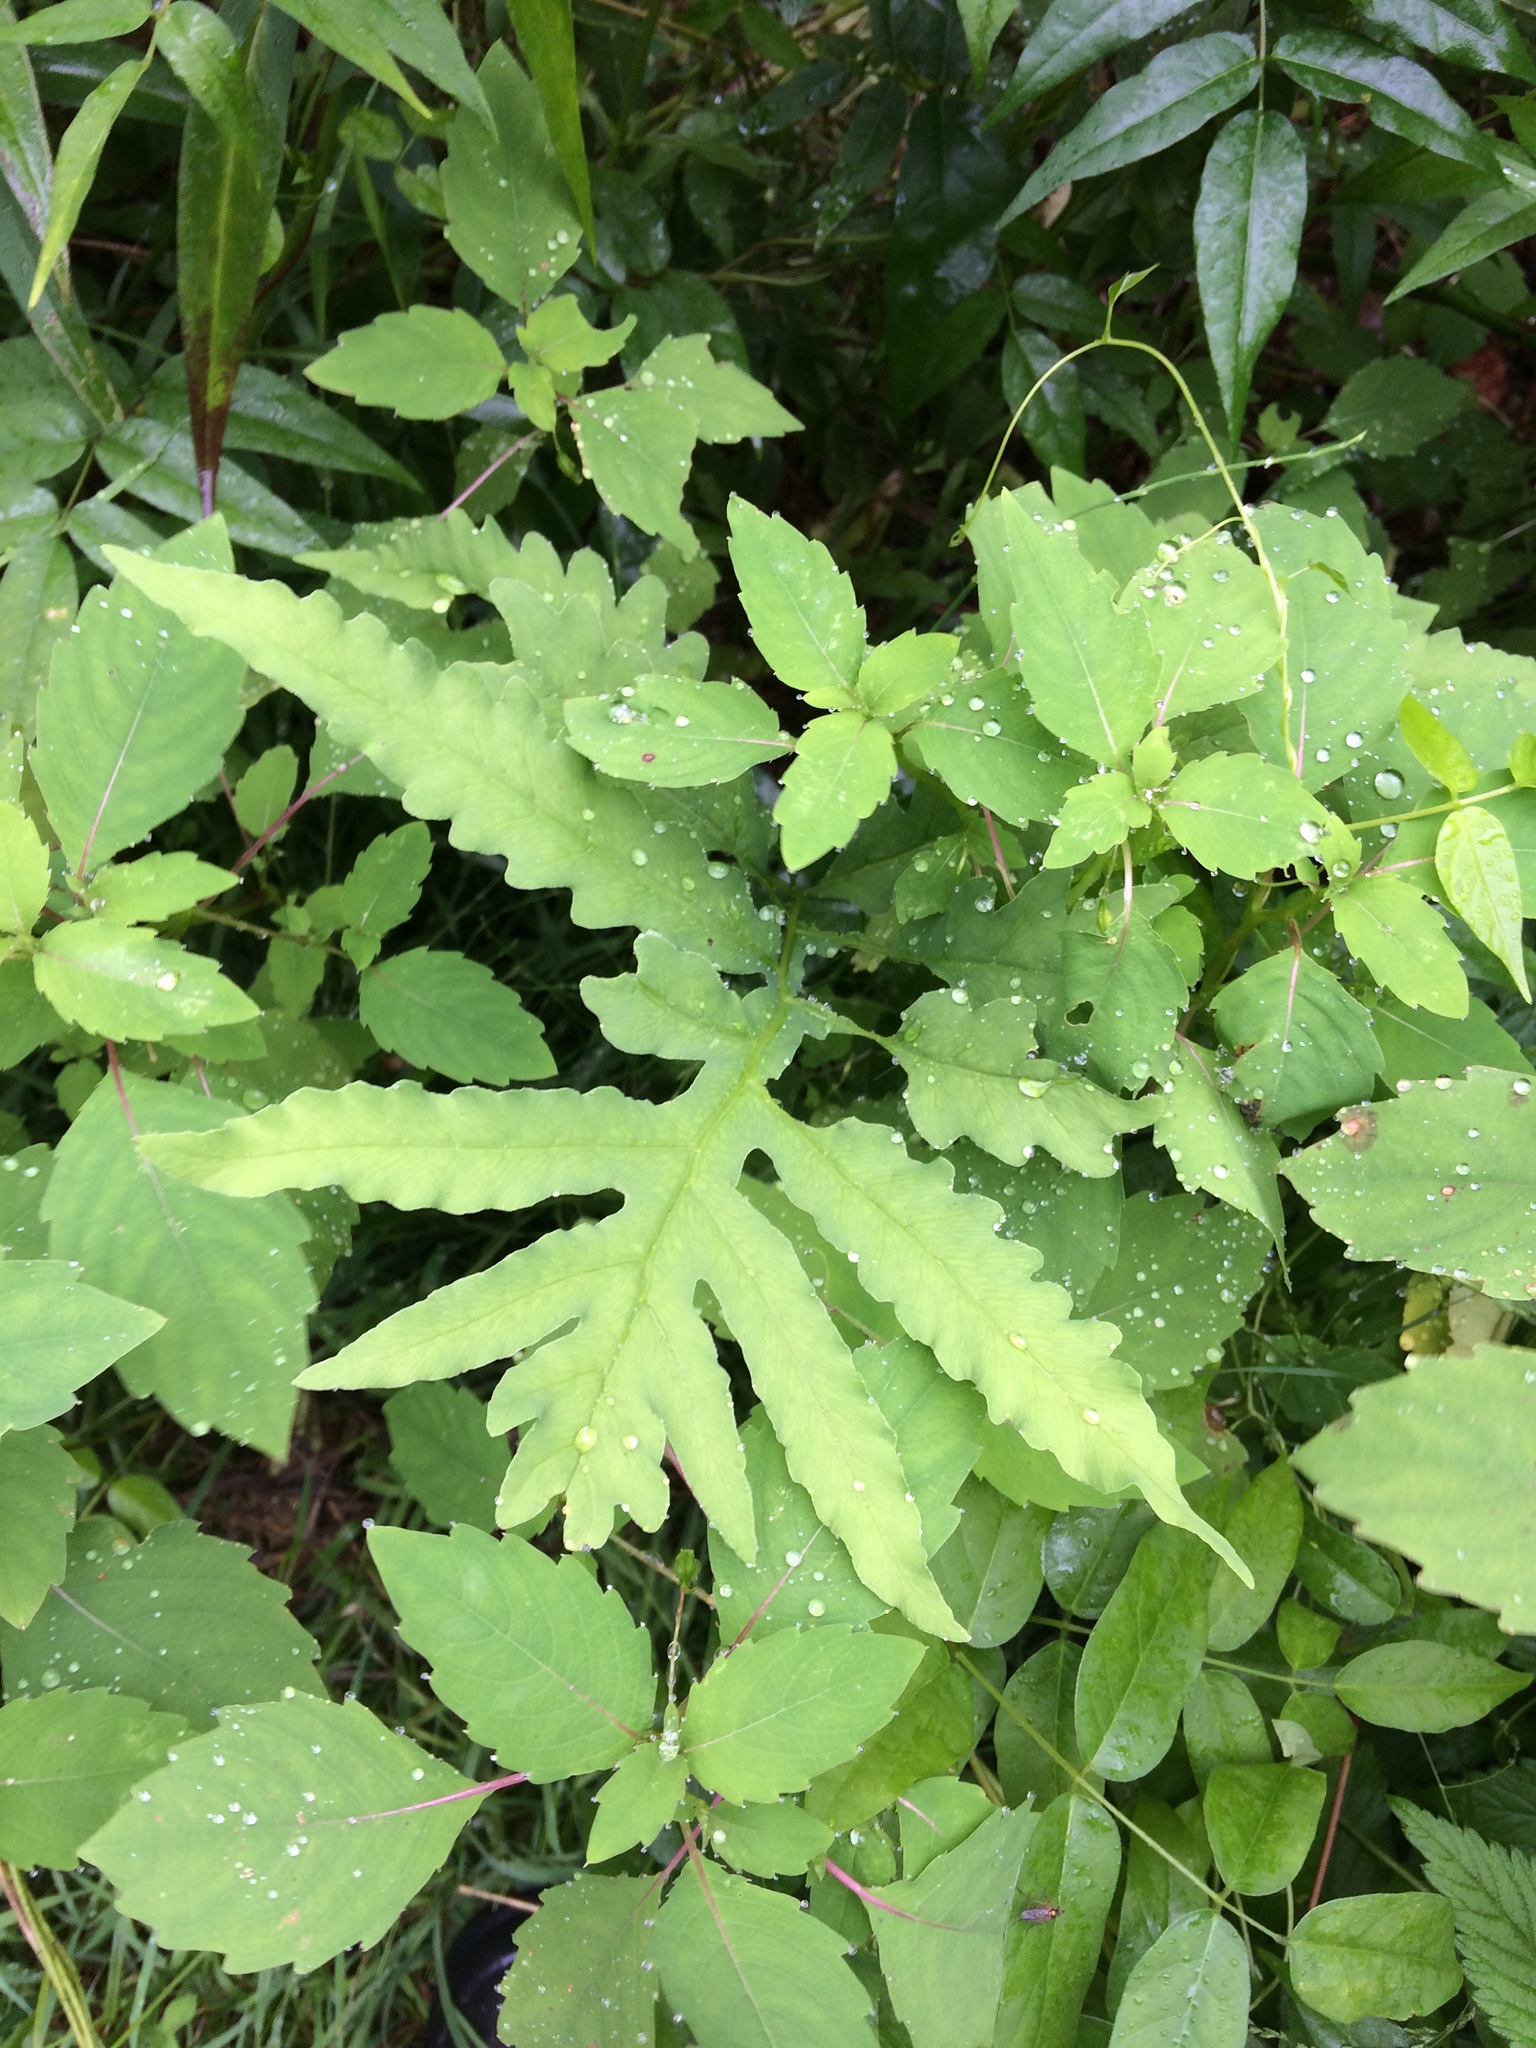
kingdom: Plantae
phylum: Tracheophyta
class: Polypodiopsida
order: Polypodiales
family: Onocleaceae
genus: Onoclea
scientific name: Onoclea sensibilis
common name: Sensitive fern
